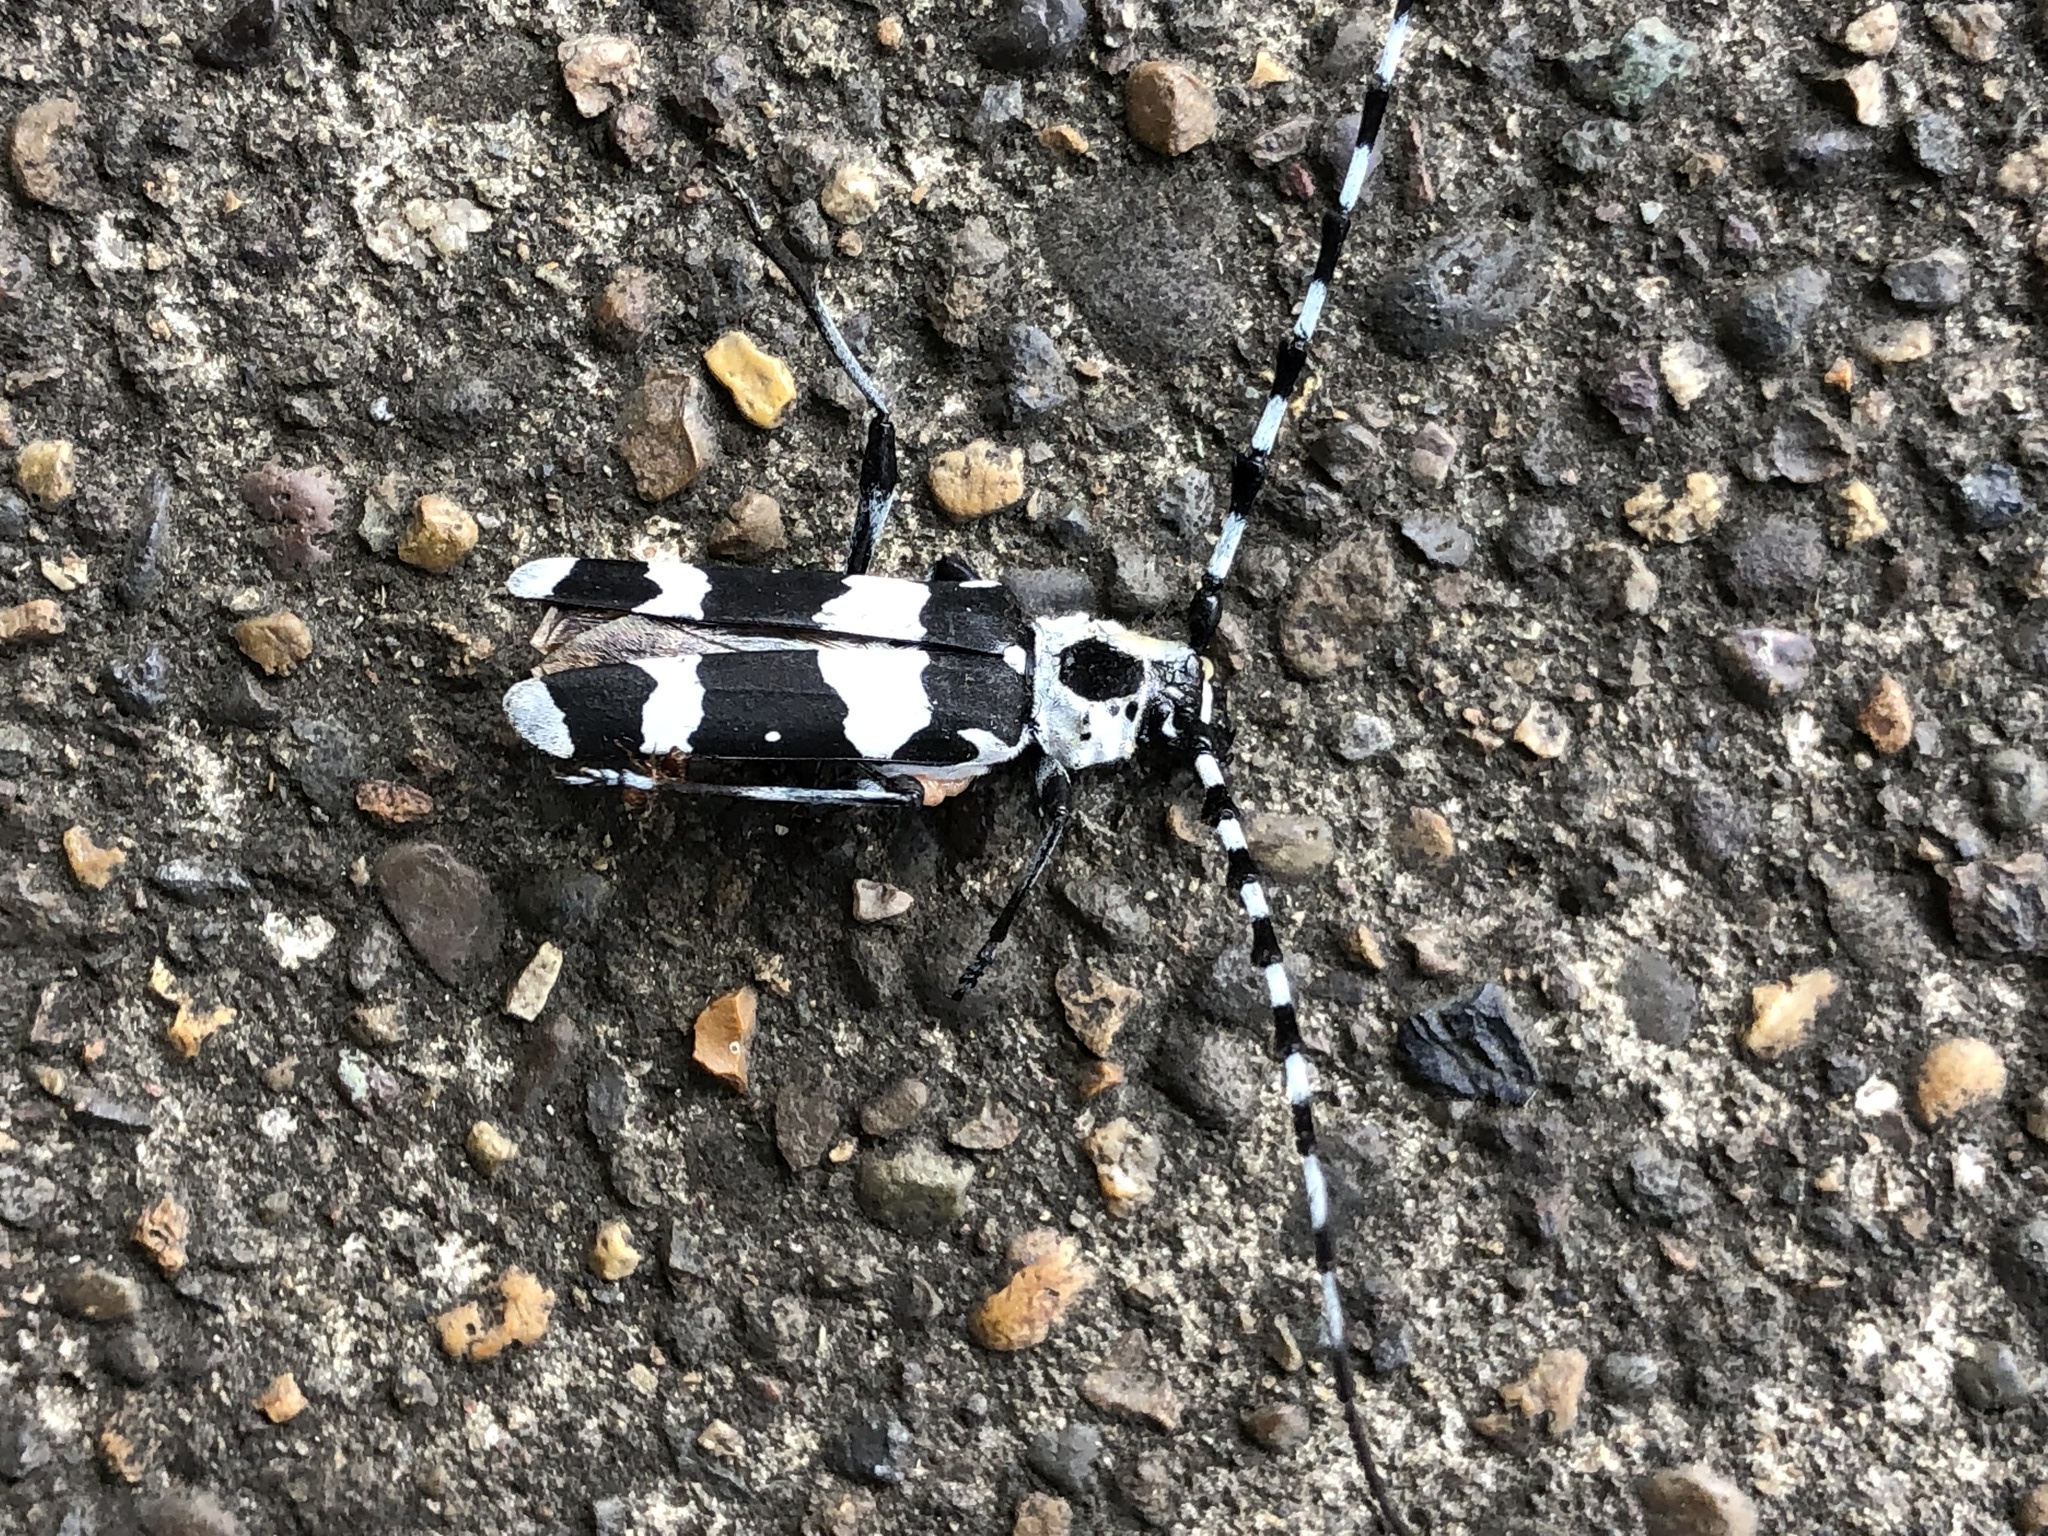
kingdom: Animalia
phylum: Arthropoda
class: Insecta
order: Coleoptera
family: Cerambycidae
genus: Rosalia
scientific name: Rosalia funebris
